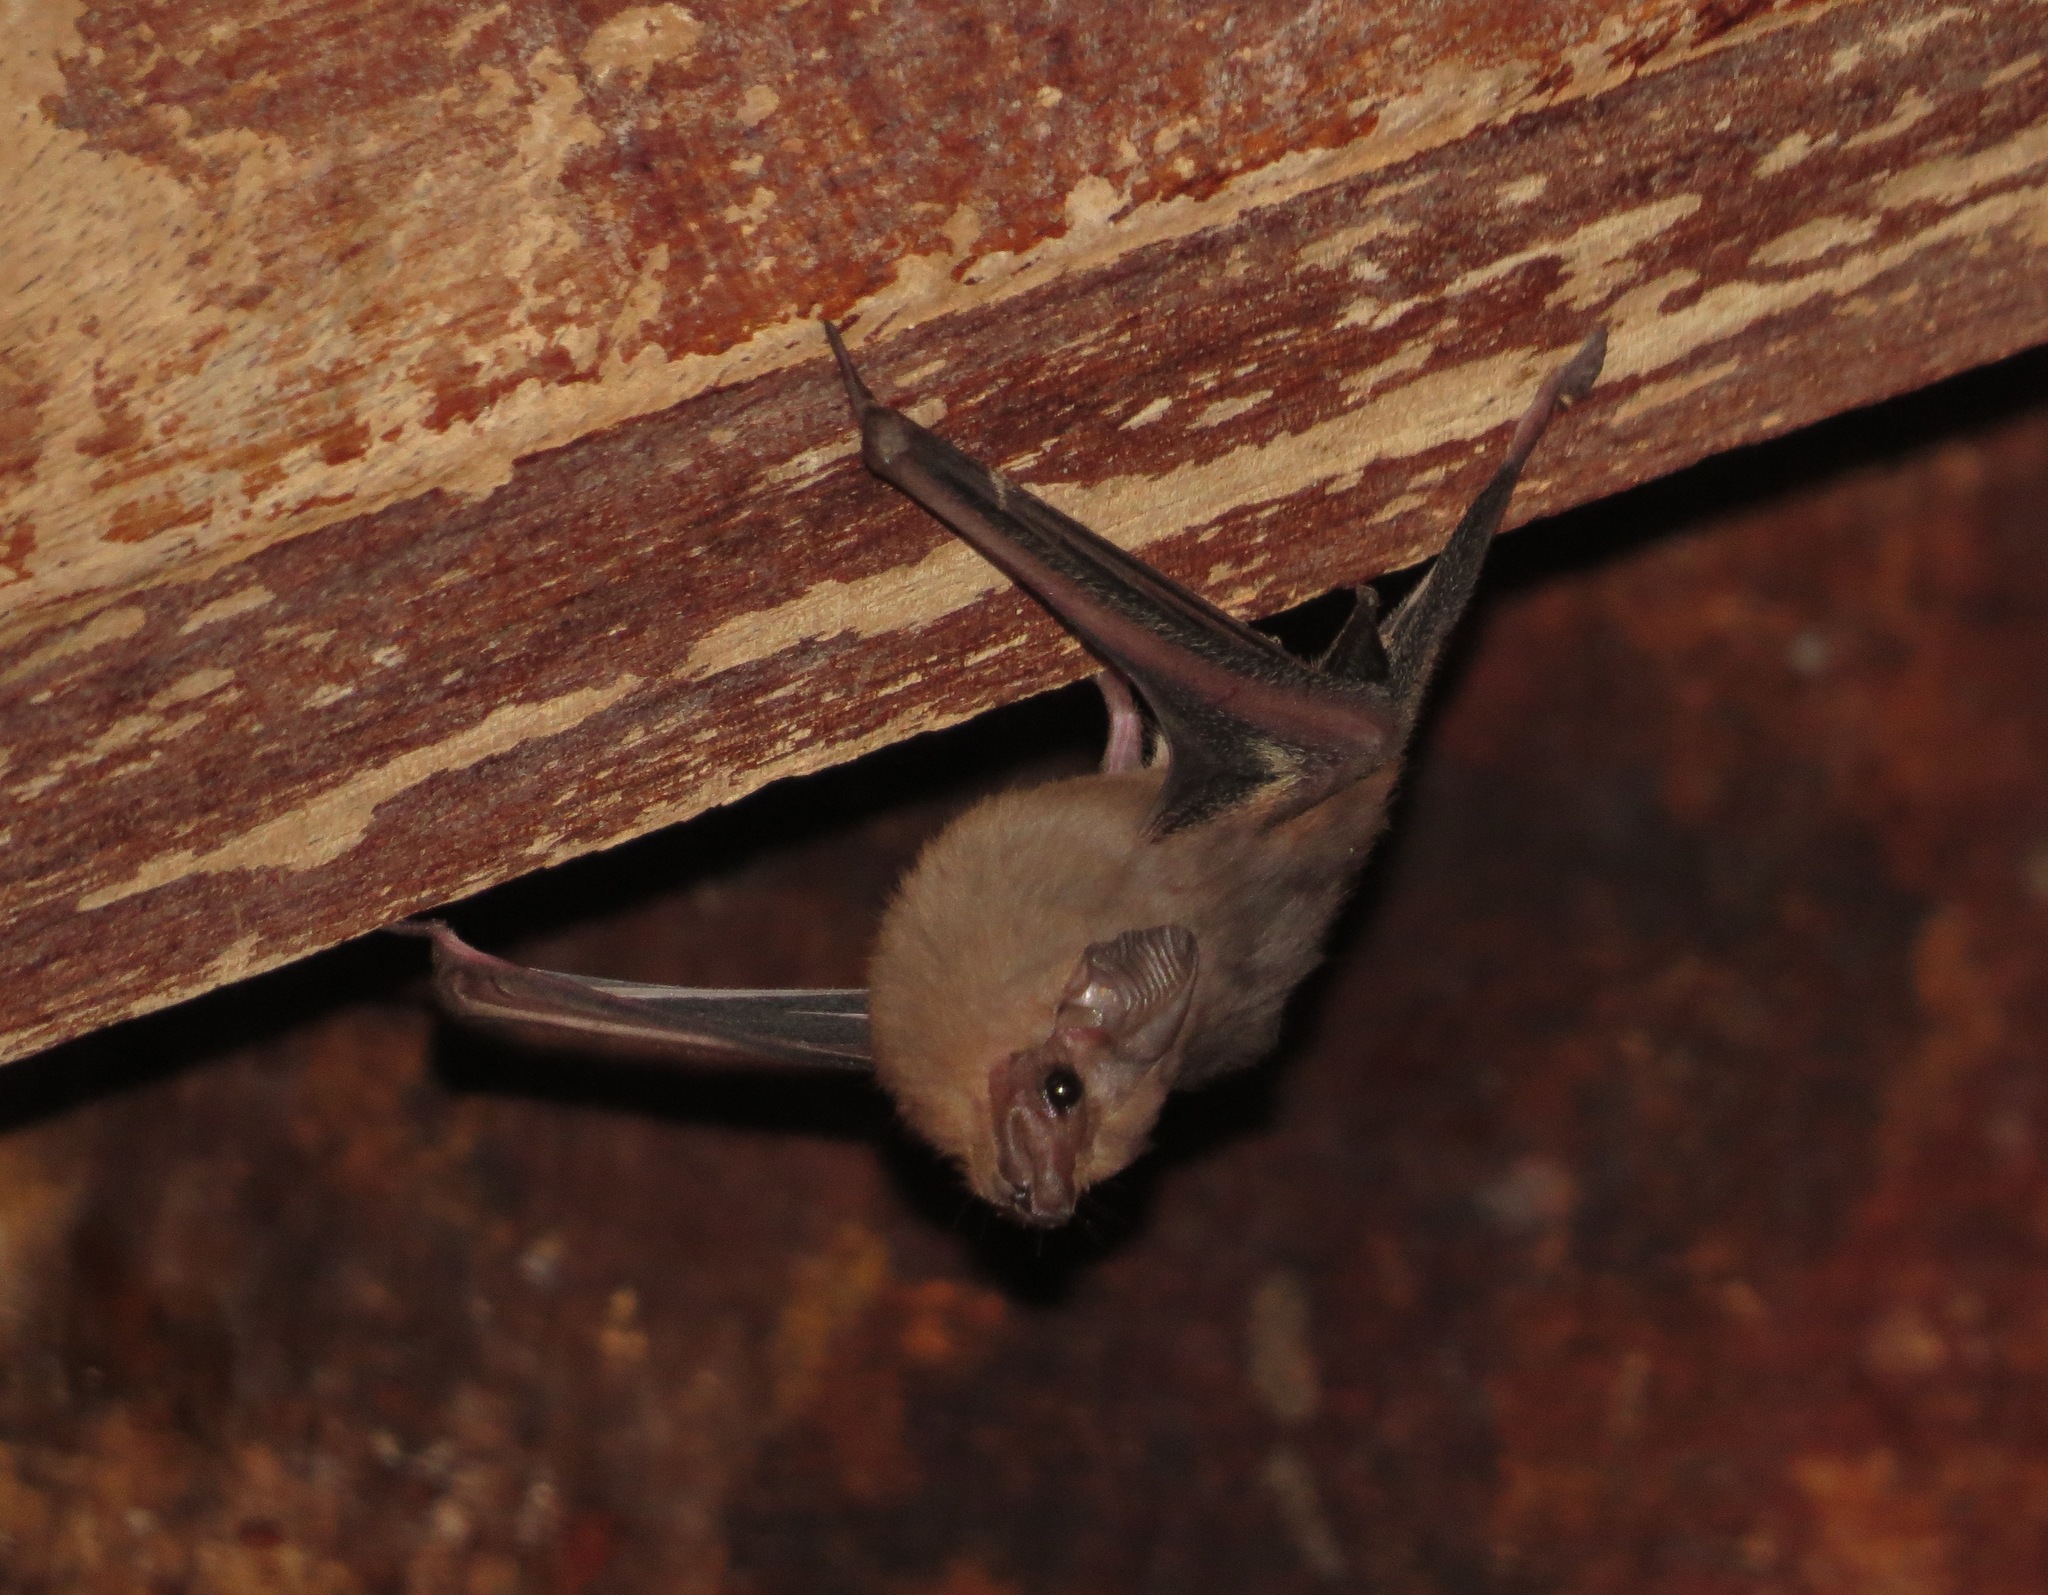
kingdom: Animalia
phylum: Chordata
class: Mammalia
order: Chiroptera
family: Emballonuridae
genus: Balantiopteryx
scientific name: Balantiopteryx plicata
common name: Gray sac-winged bat
